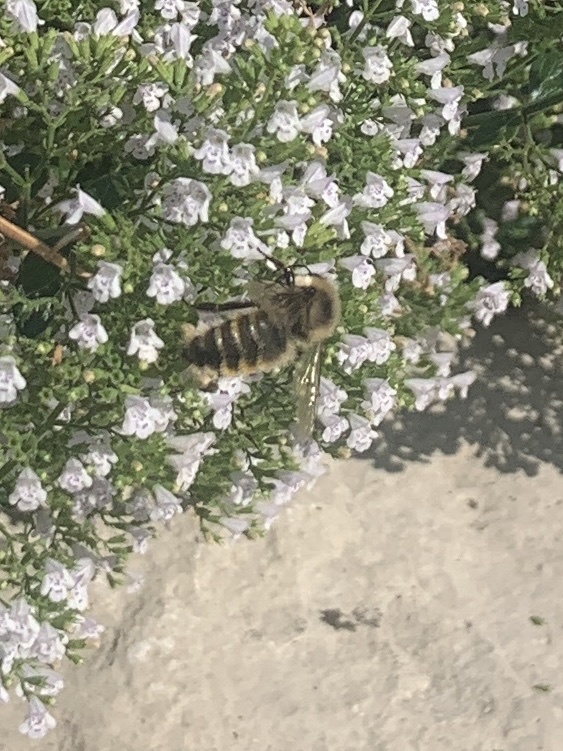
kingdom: Animalia
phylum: Arthropoda
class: Insecta
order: Hymenoptera
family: Apidae
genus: Bombus
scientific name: Bombus rufocinctus
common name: Red-belted bumble bee
